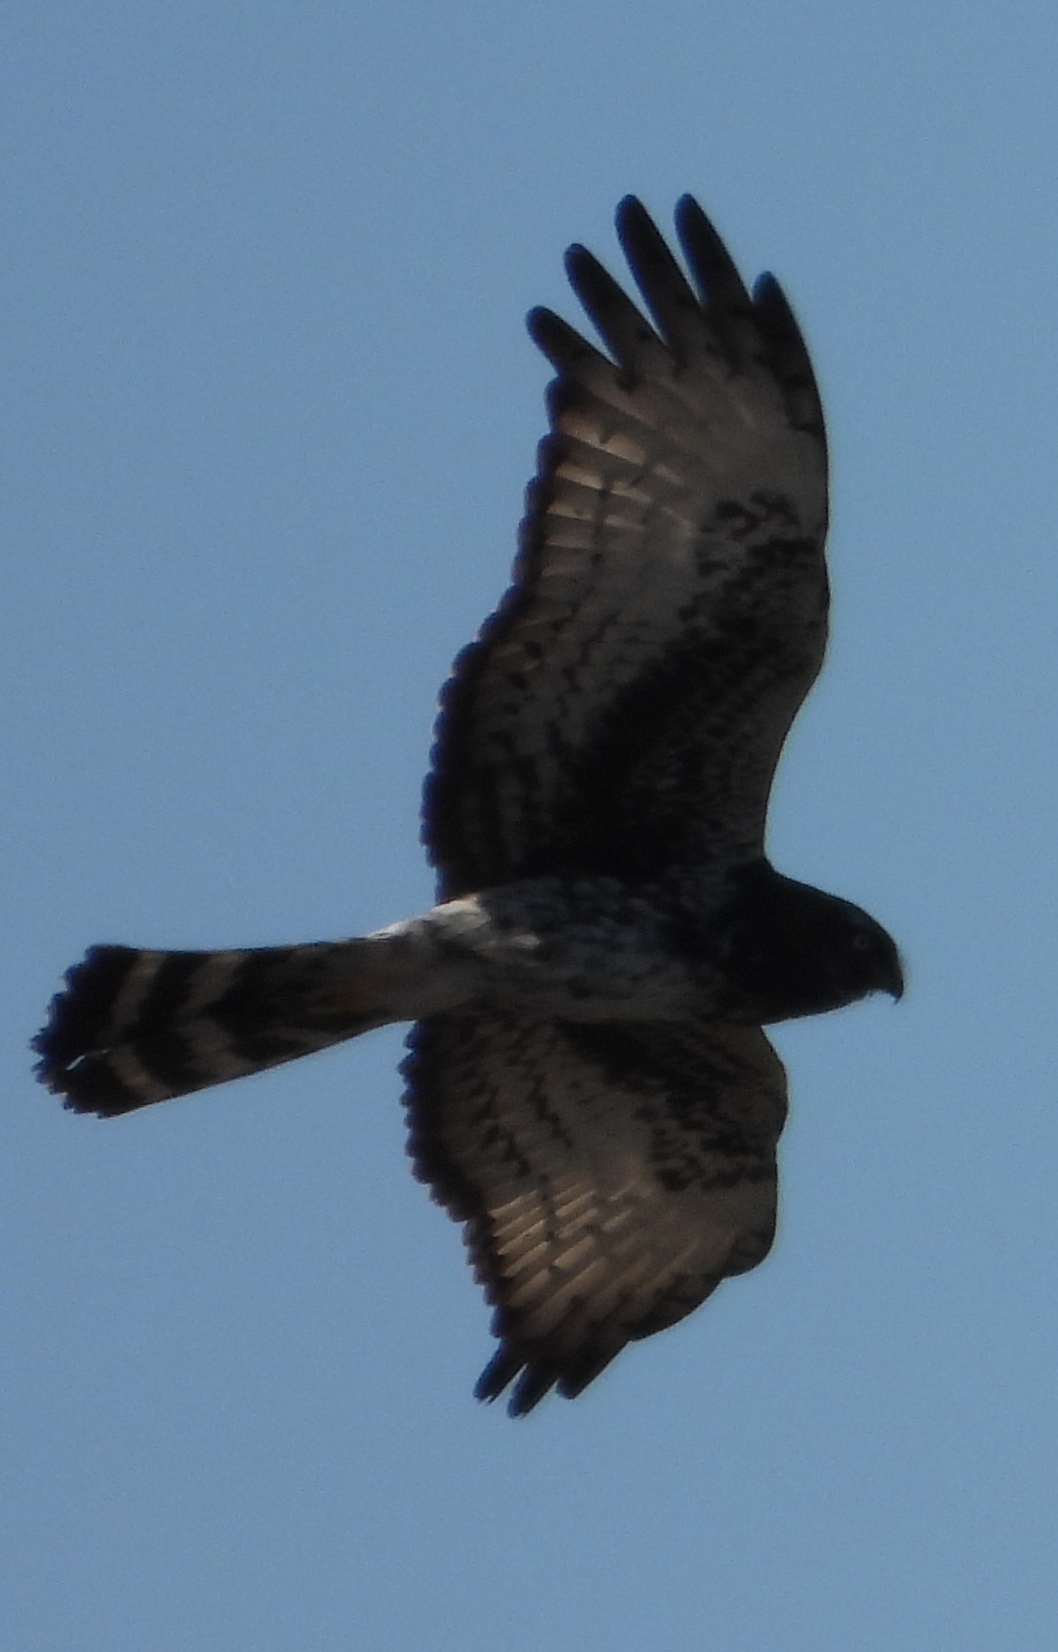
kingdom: Animalia
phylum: Chordata
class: Aves
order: Accipitriformes
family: Accipitridae
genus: Circus
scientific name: Circus maurus
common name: Black harrier
